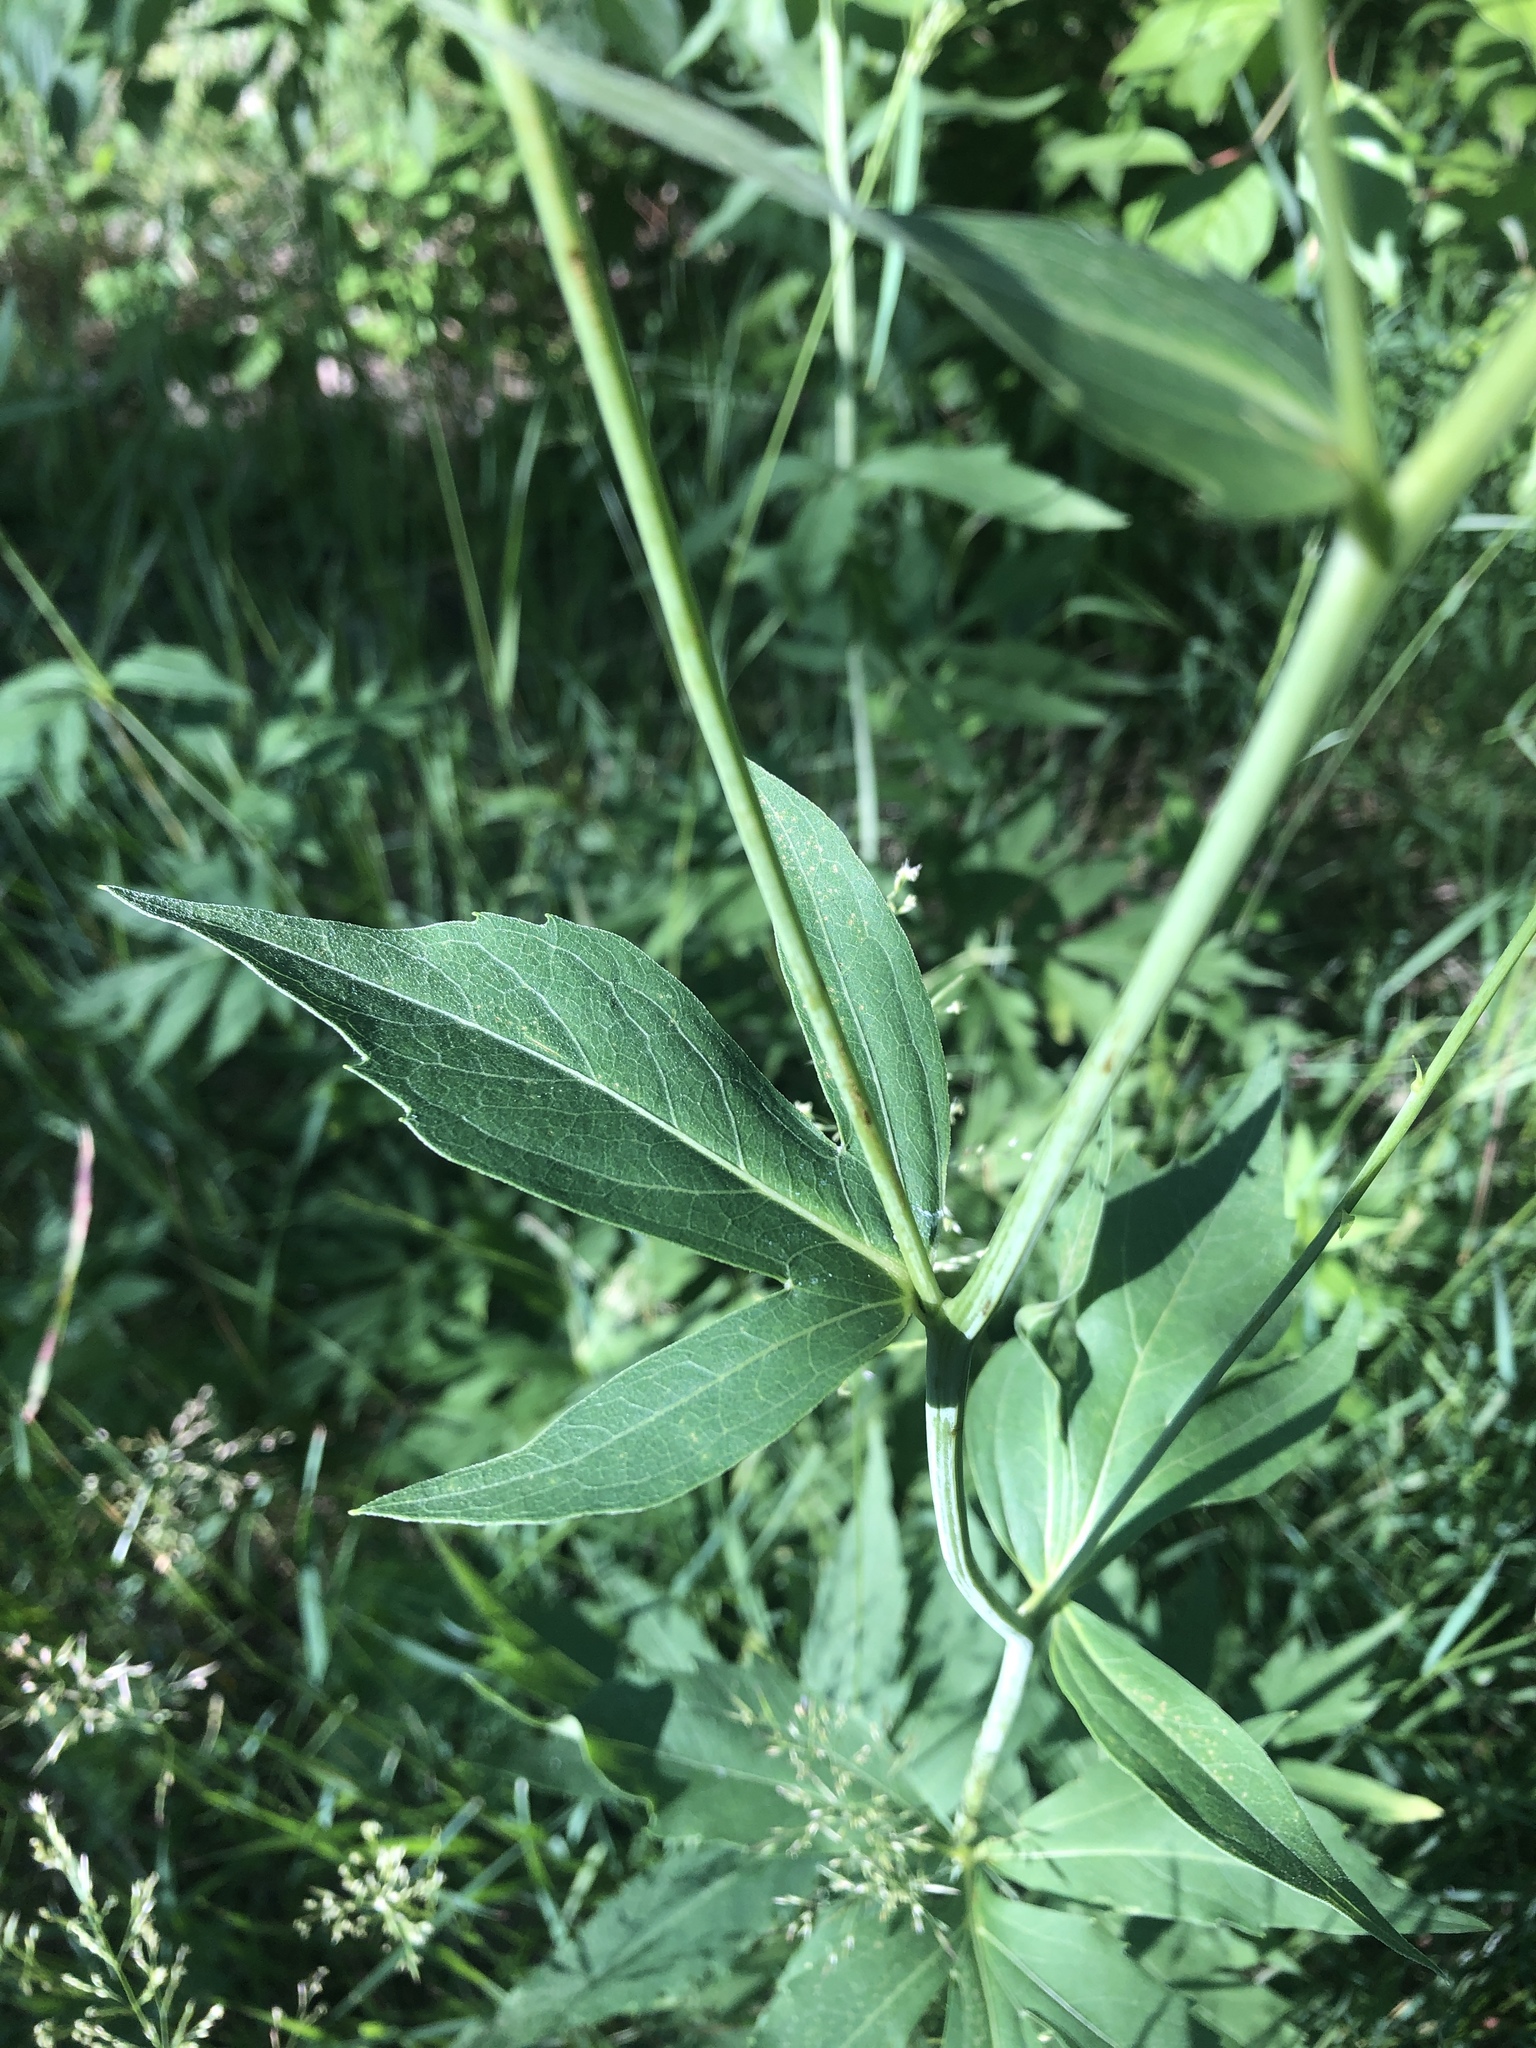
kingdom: Plantae
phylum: Tracheophyta
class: Magnoliopsida
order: Asterales
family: Asteraceae
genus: Rudbeckia
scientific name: Rudbeckia laciniata
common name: Coneflower
